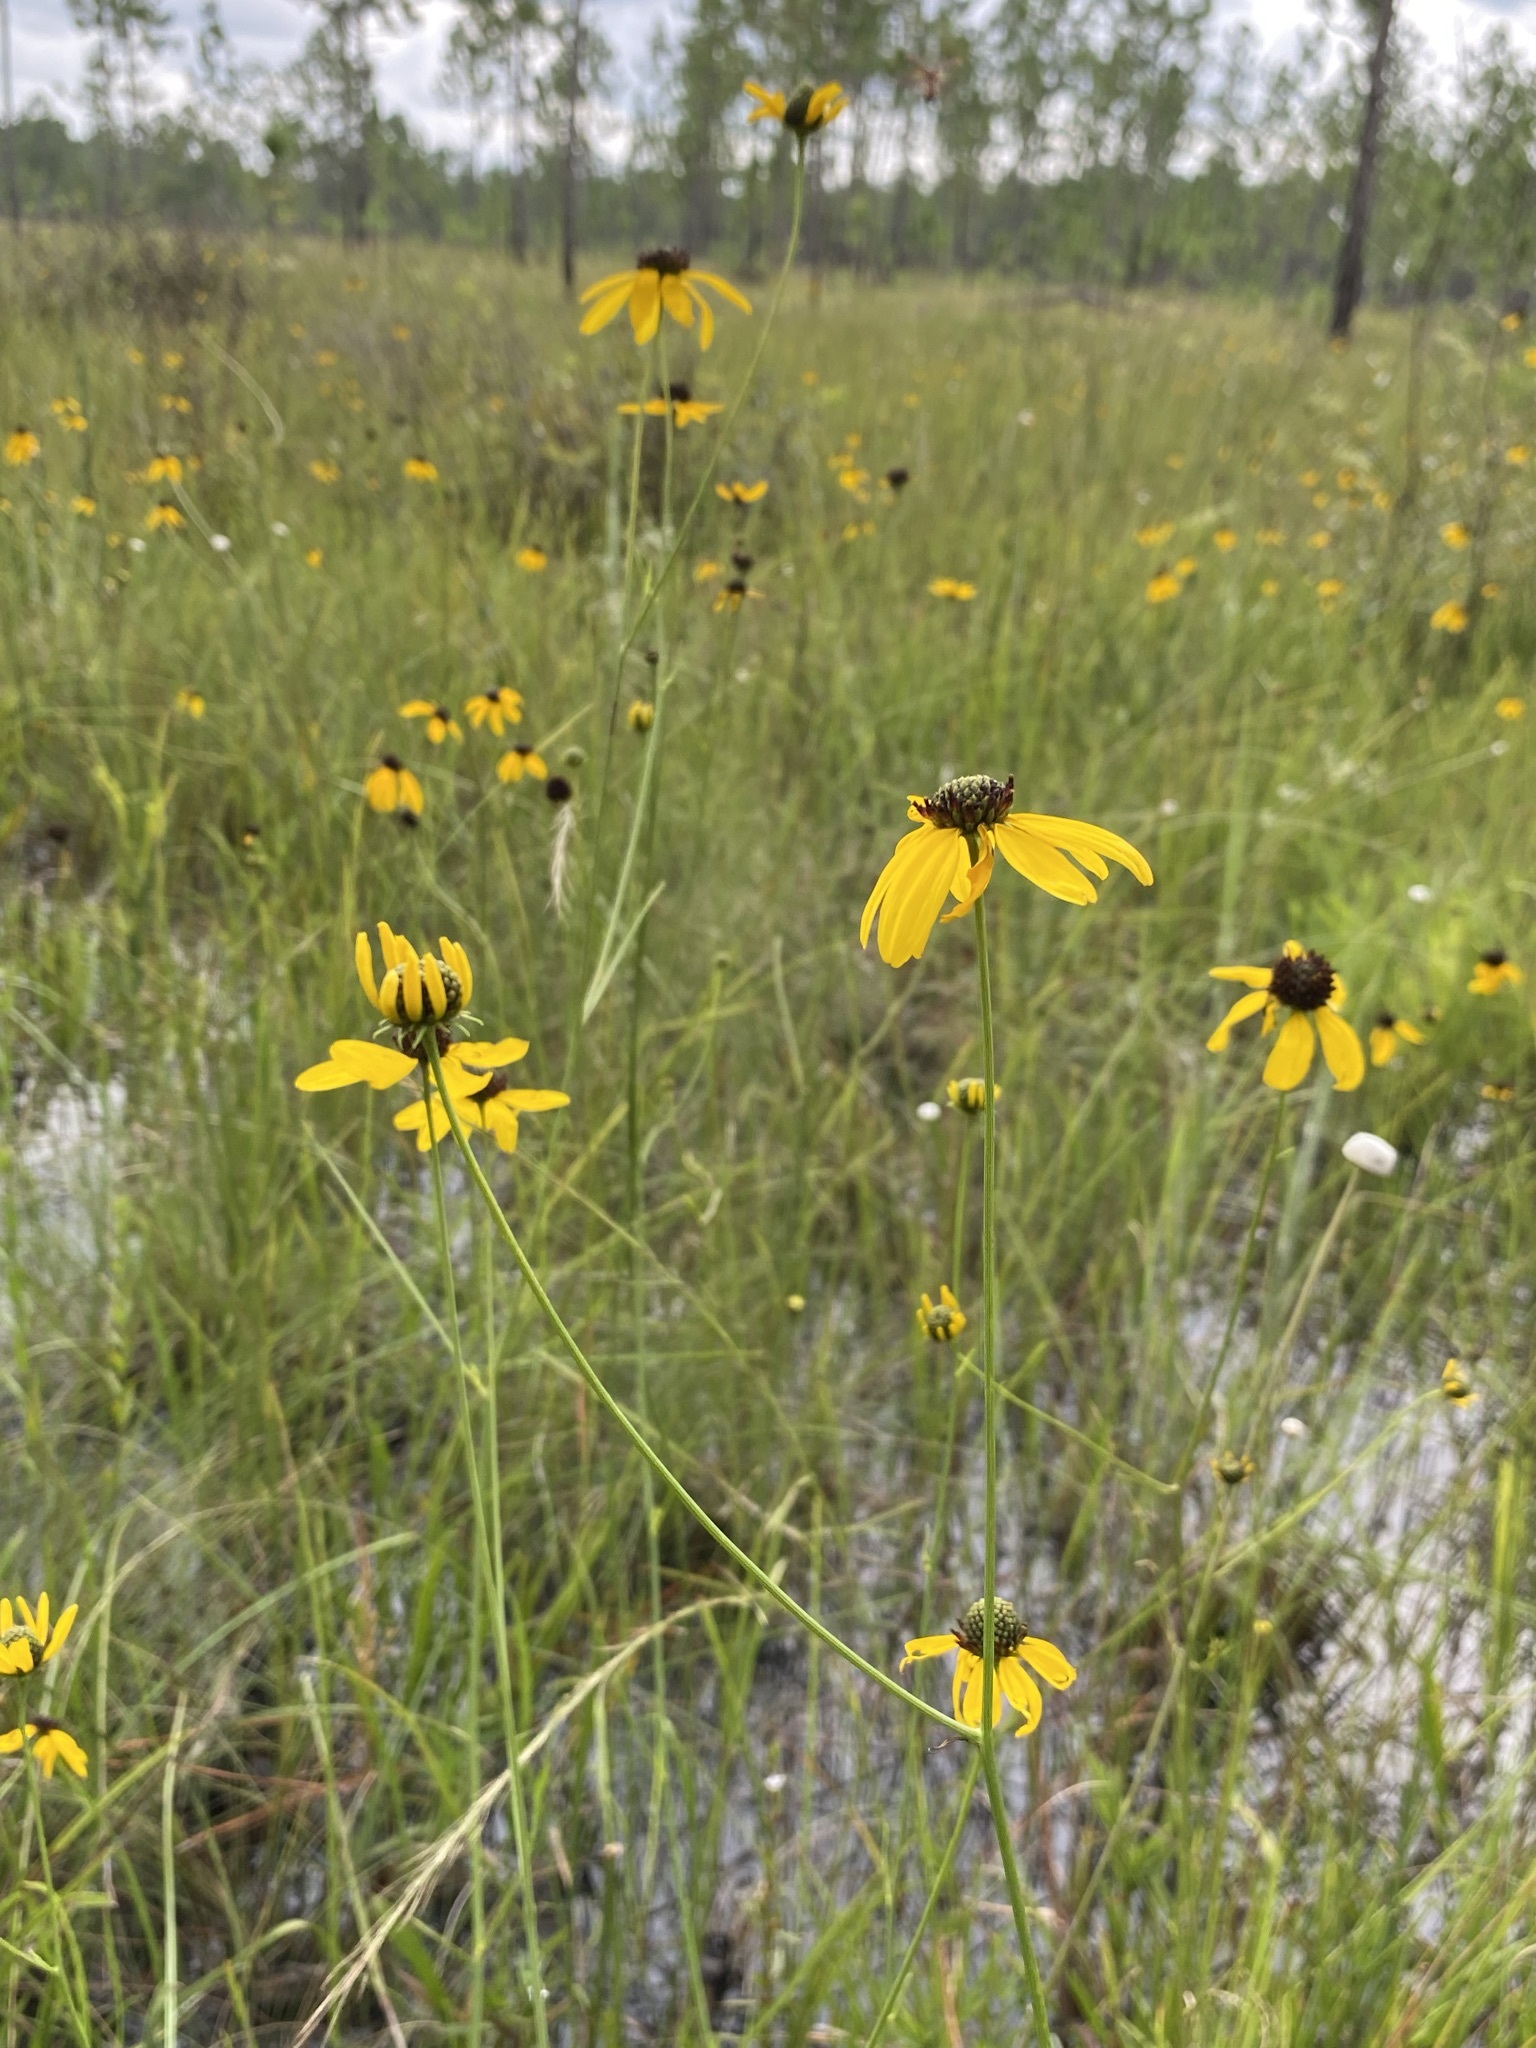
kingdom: Plantae
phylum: Tracheophyta
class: Magnoliopsida
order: Asterales
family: Asteraceae
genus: Rudbeckia
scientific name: Rudbeckia mohrii
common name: Grassy coneflower
